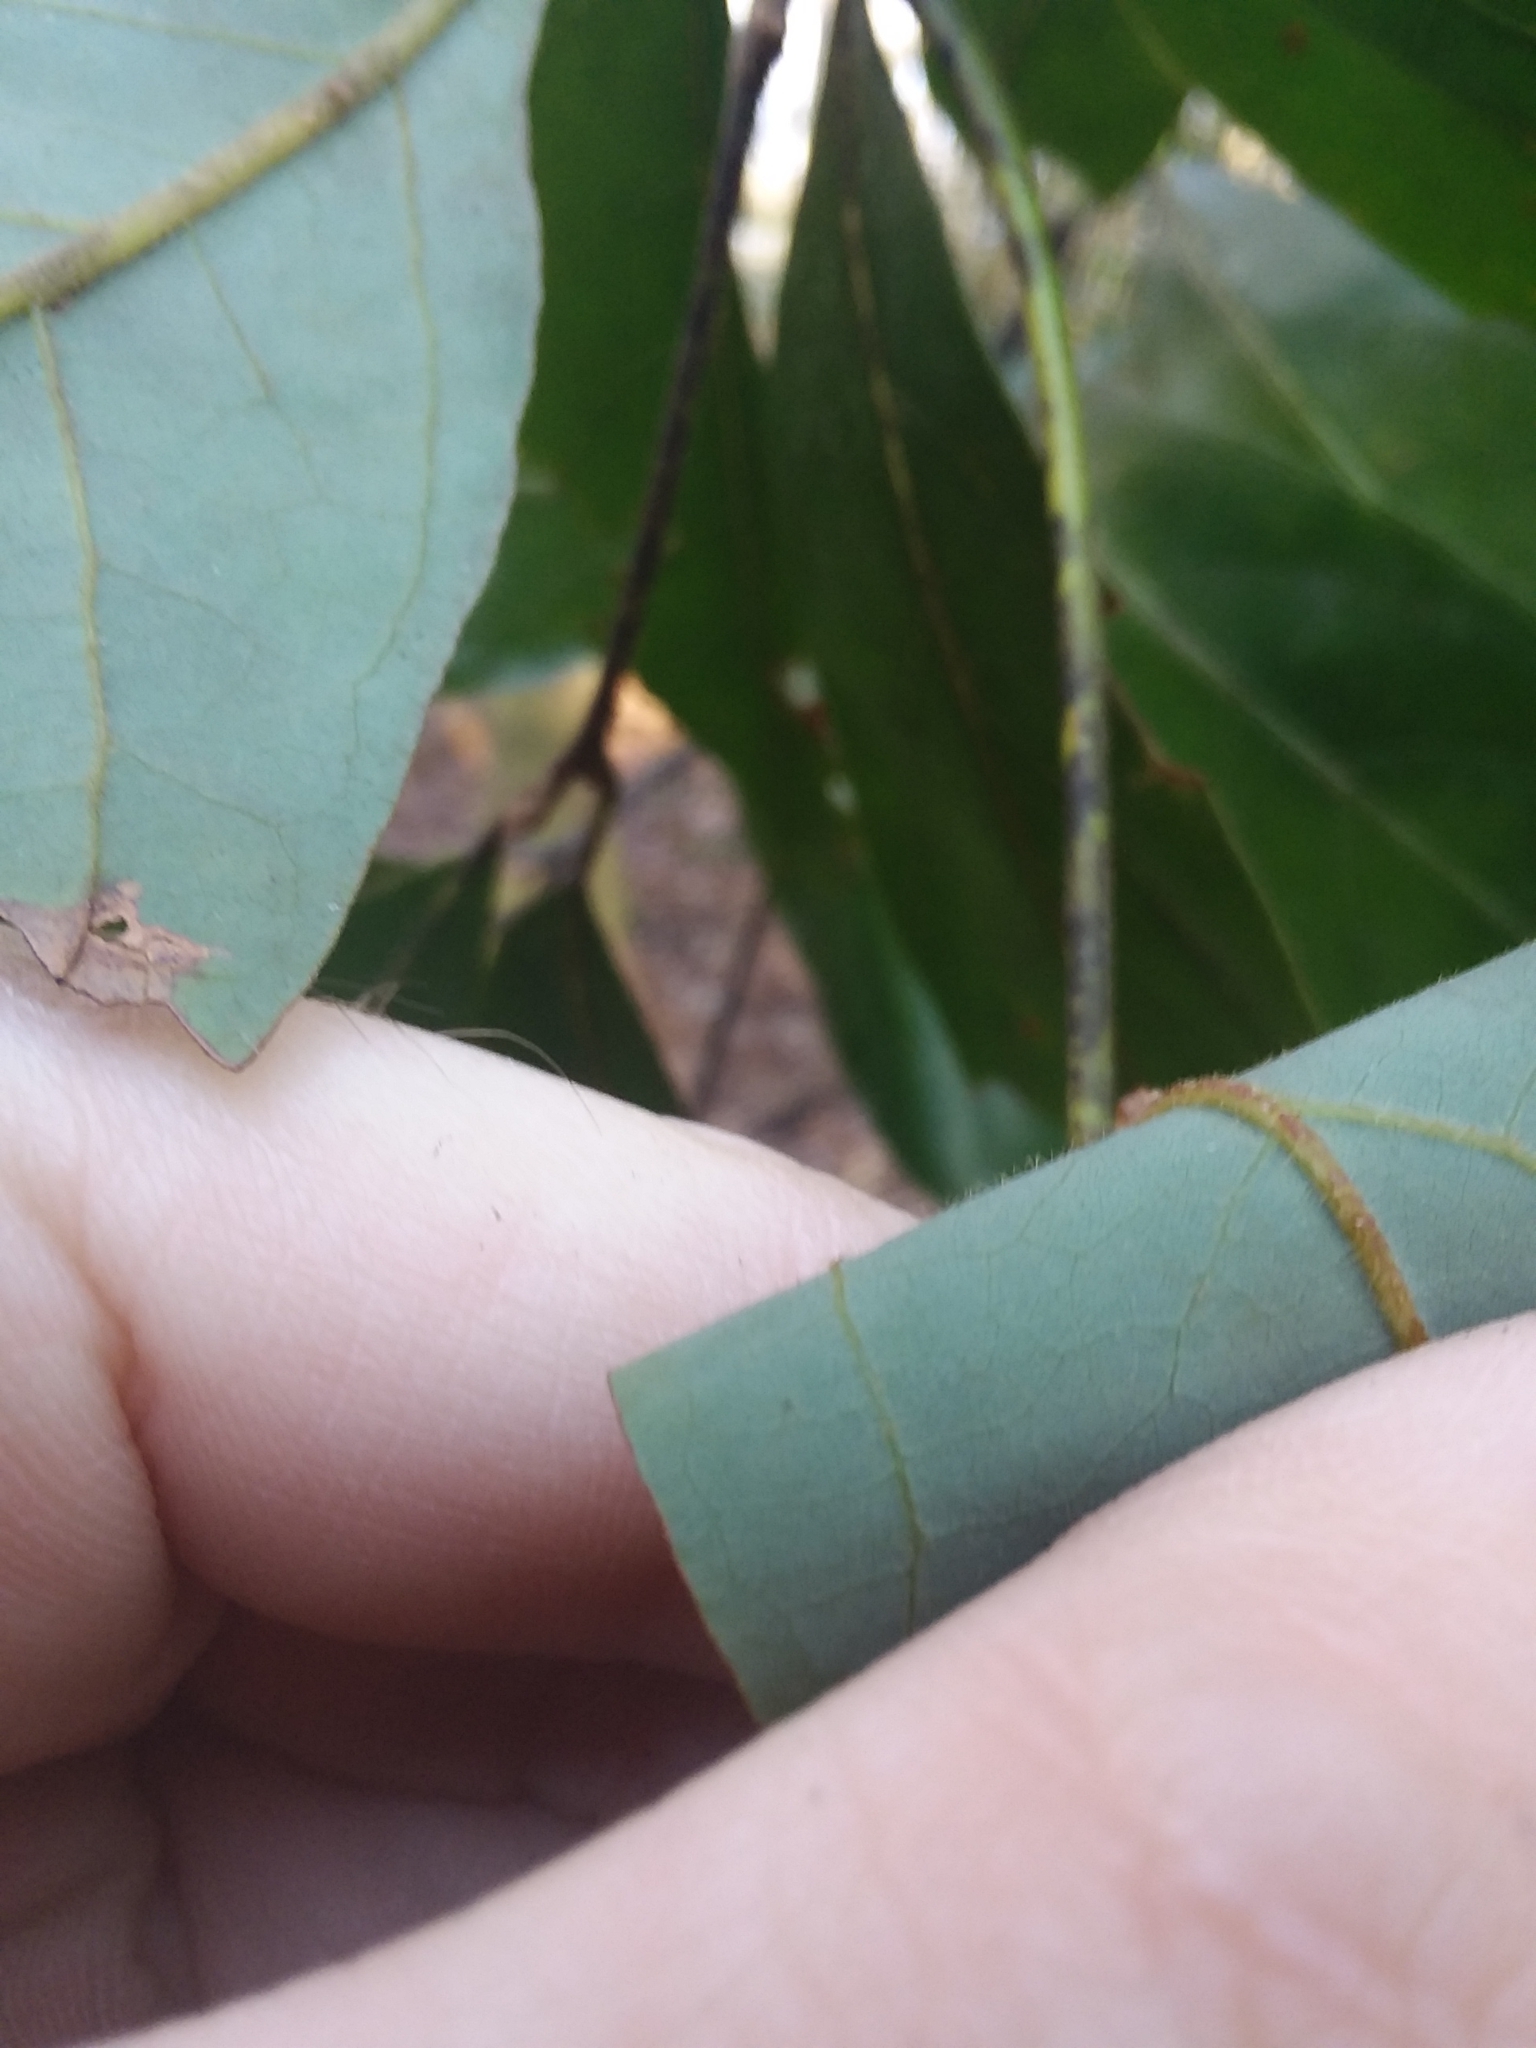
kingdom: Plantae
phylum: Tracheophyta
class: Magnoliopsida
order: Laurales
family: Lauraceae
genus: Persea
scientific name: Persea palustris
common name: Swampbay
